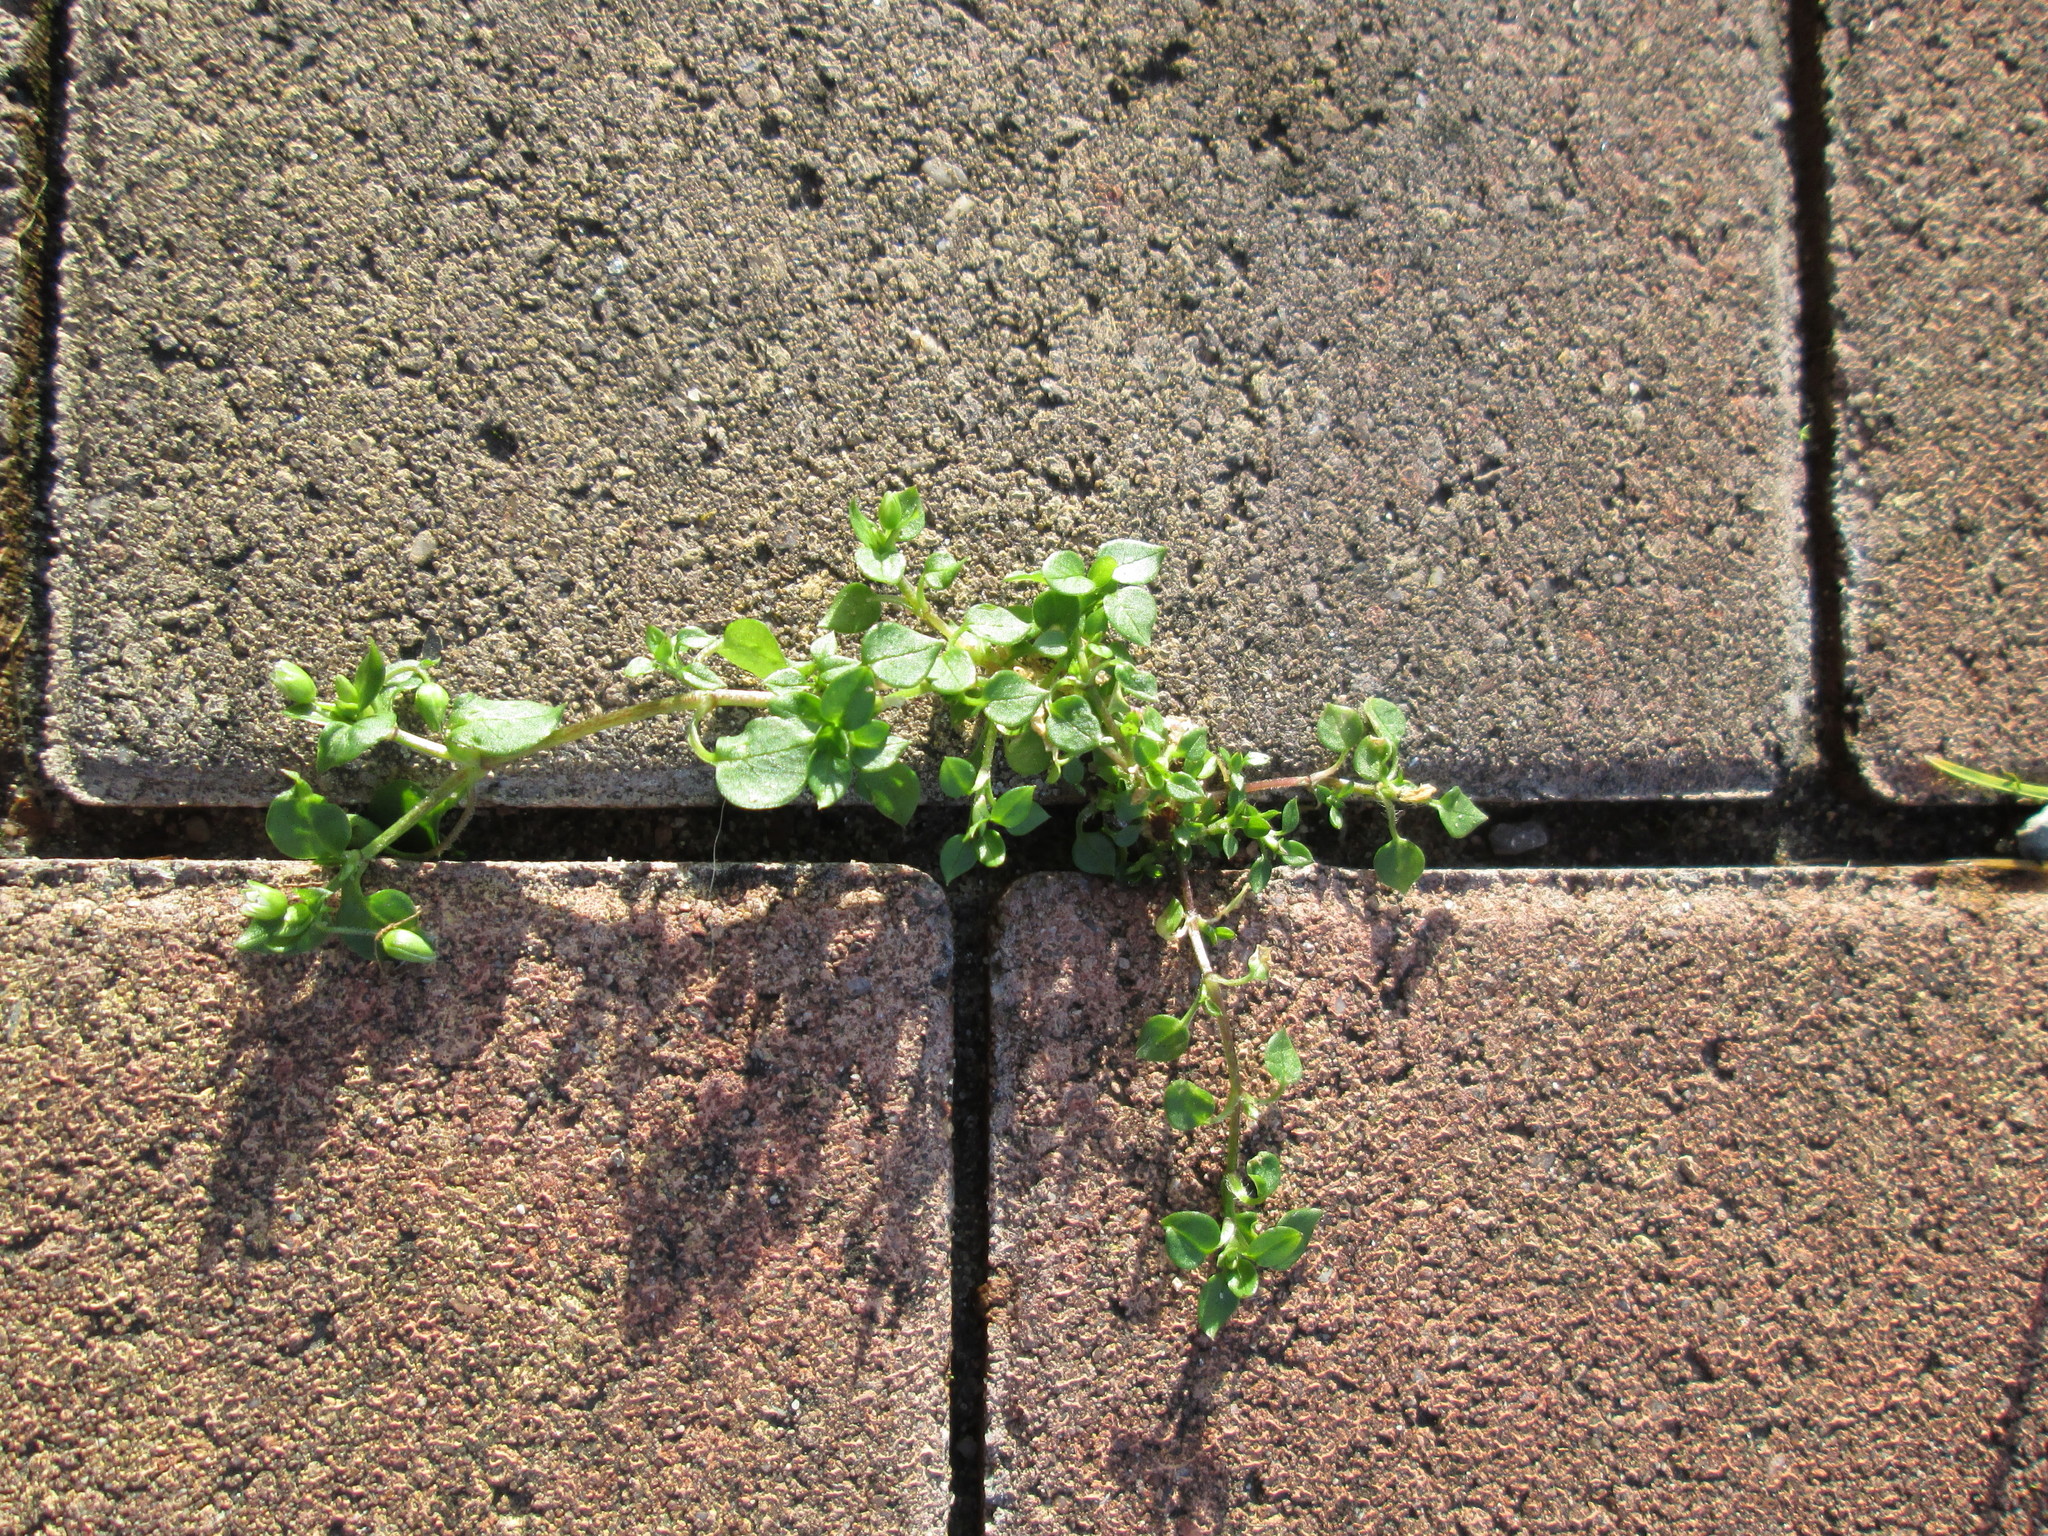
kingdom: Plantae
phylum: Tracheophyta
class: Magnoliopsida
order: Caryophyllales
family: Caryophyllaceae
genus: Stellaria
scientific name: Stellaria media
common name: Common chickweed
